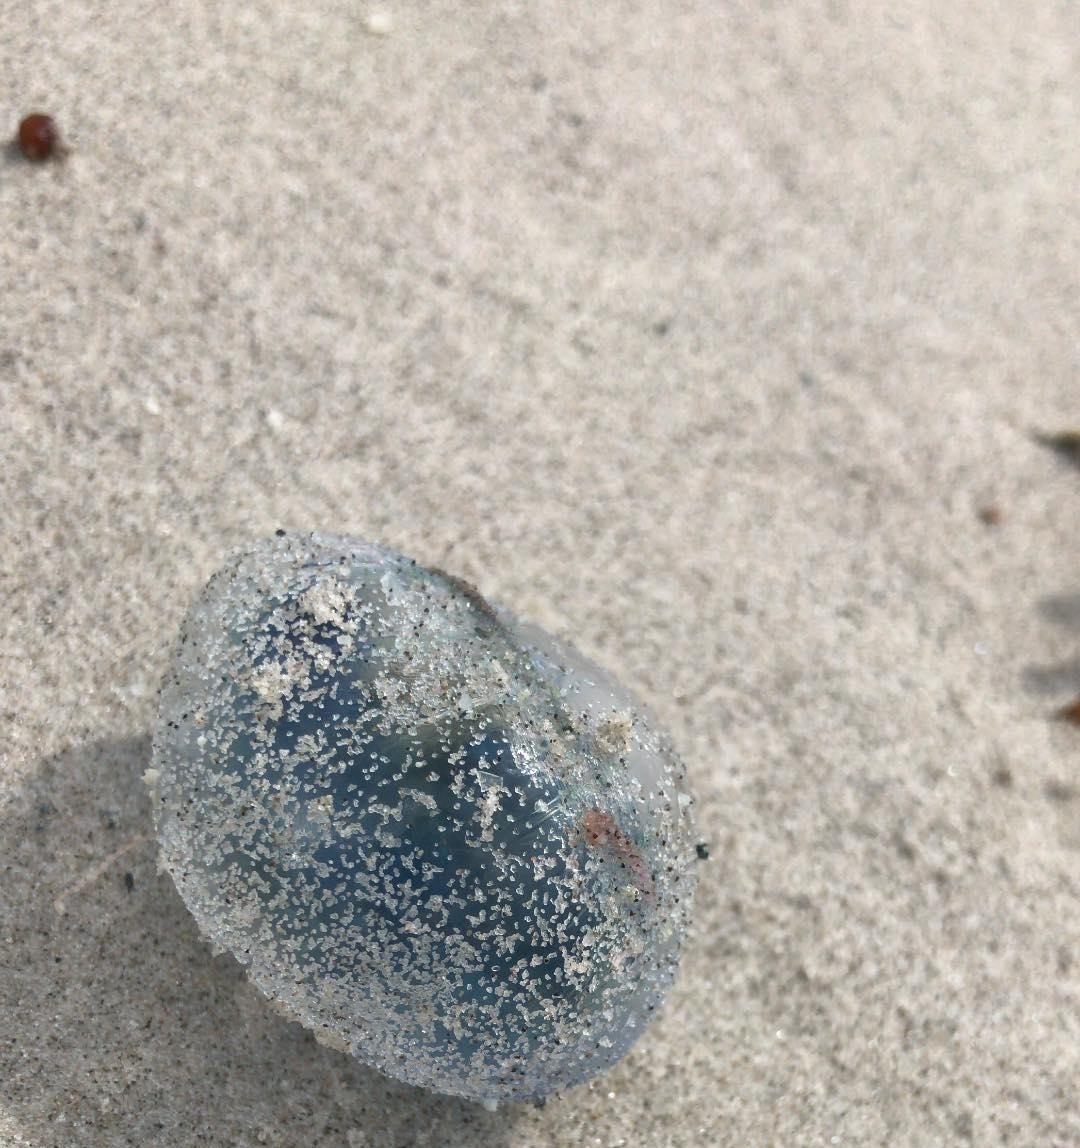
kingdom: Animalia
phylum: Cnidaria
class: Hydrozoa
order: Siphonophorae
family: Physaliidae
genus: Physalia
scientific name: Physalia physalis
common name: Portuguese man-of-war
